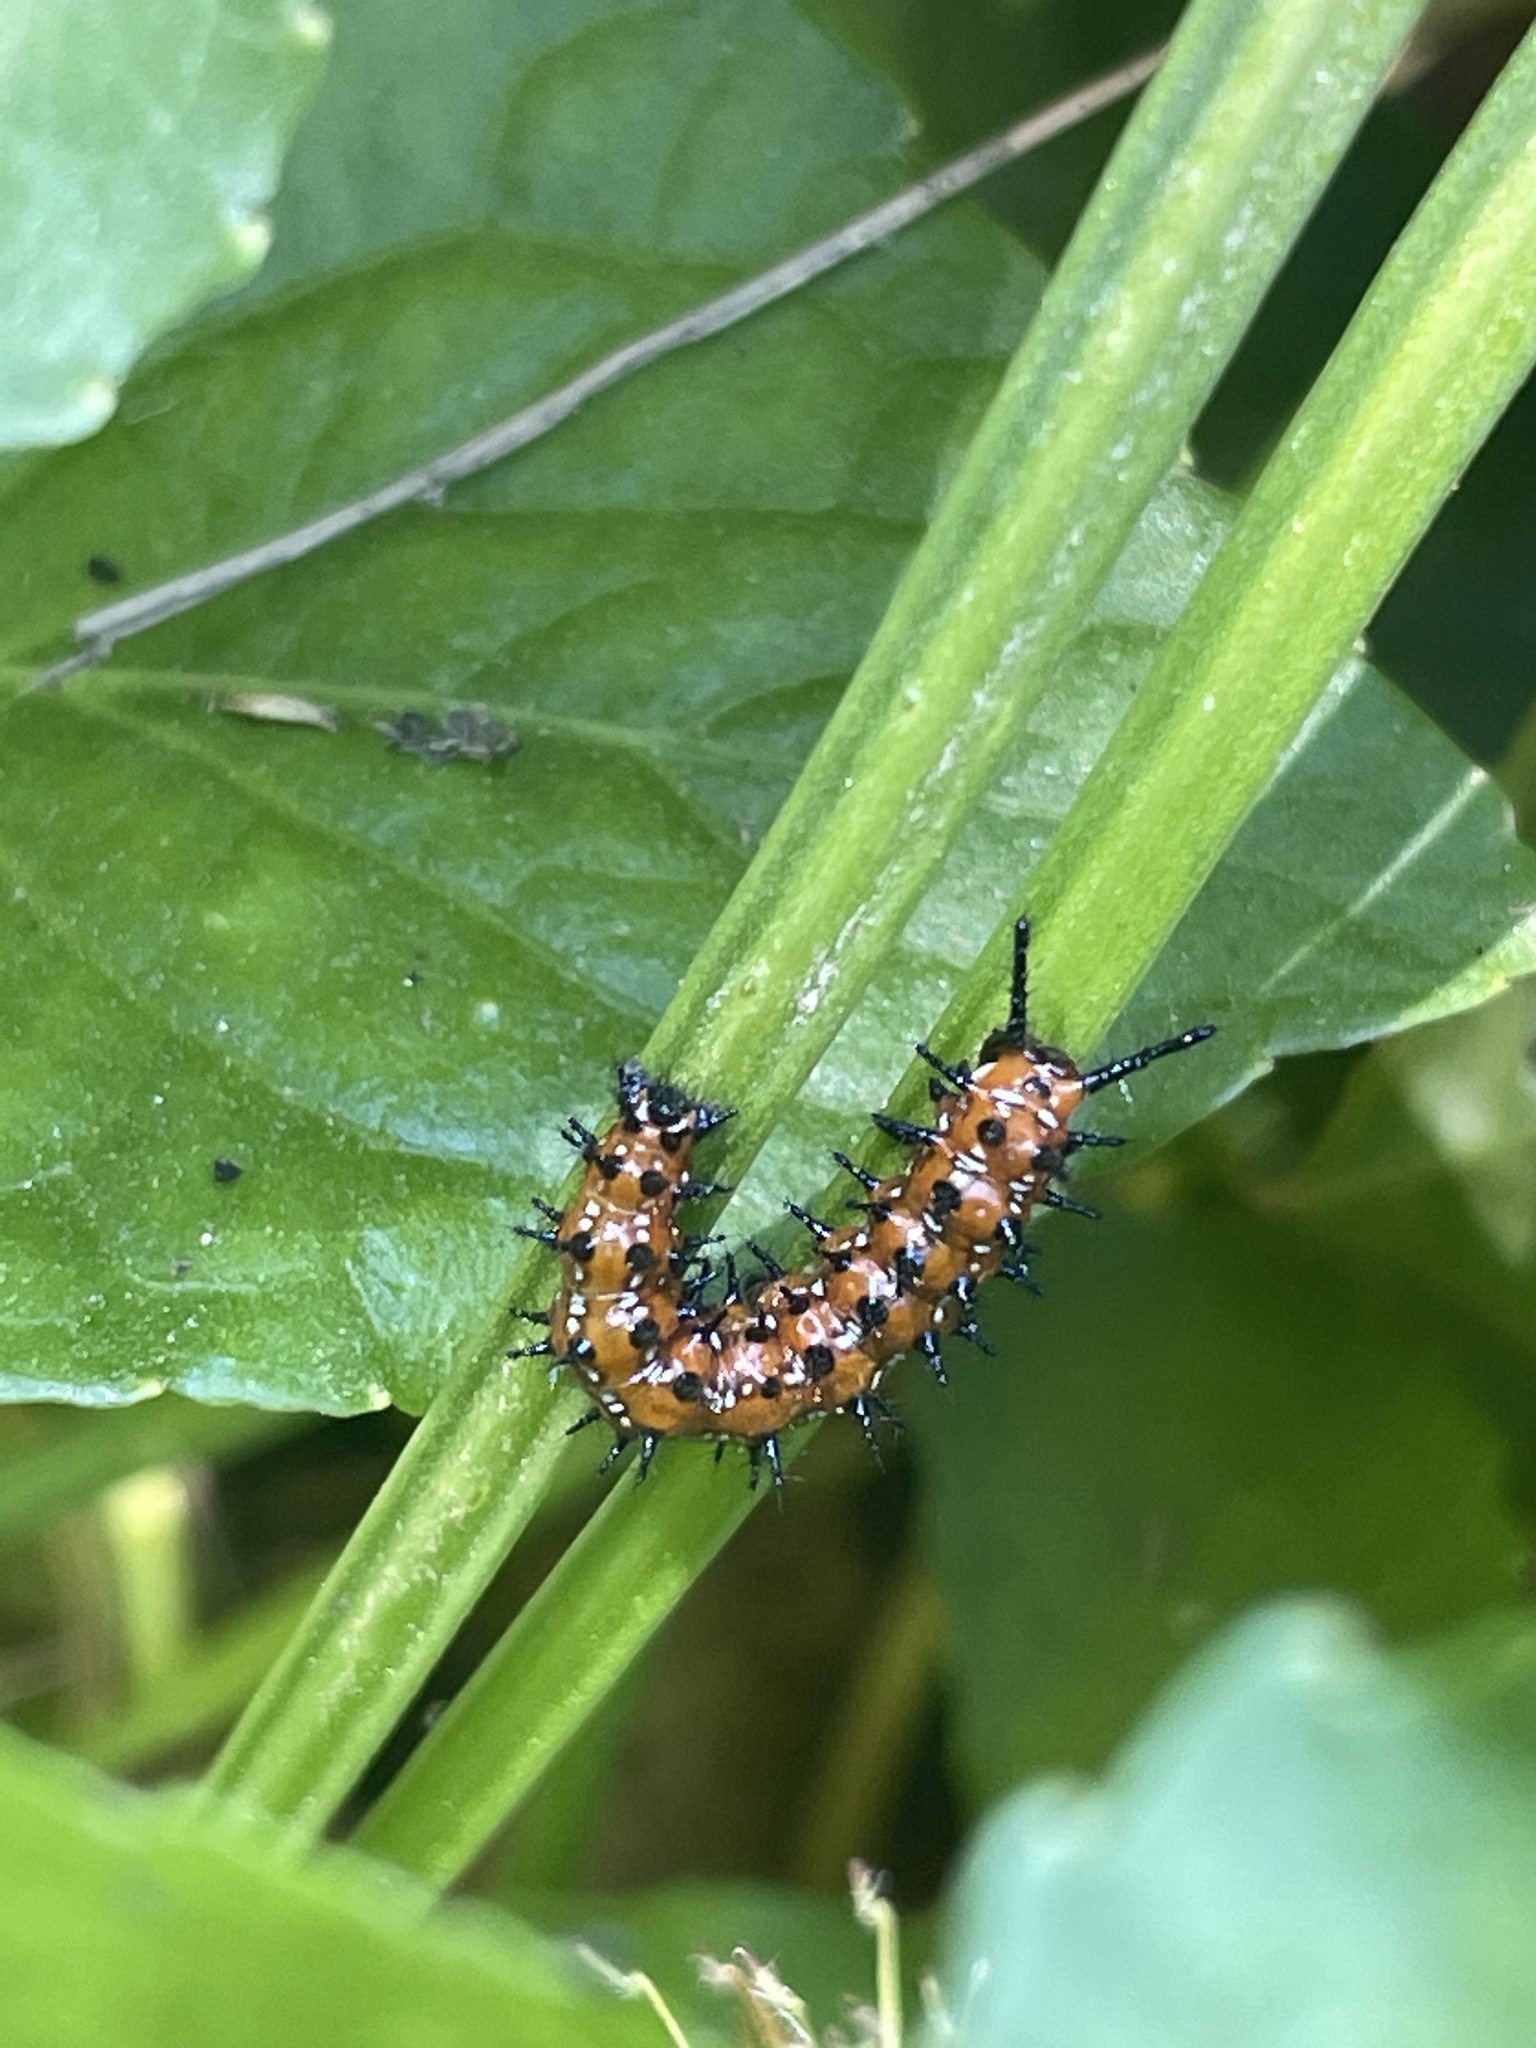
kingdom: Animalia
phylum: Arthropoda
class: Insecta
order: Lepidoptera
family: Nymphalidae
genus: Euptoieta
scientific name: Euptoieta claudia
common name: Variegated fritillary
